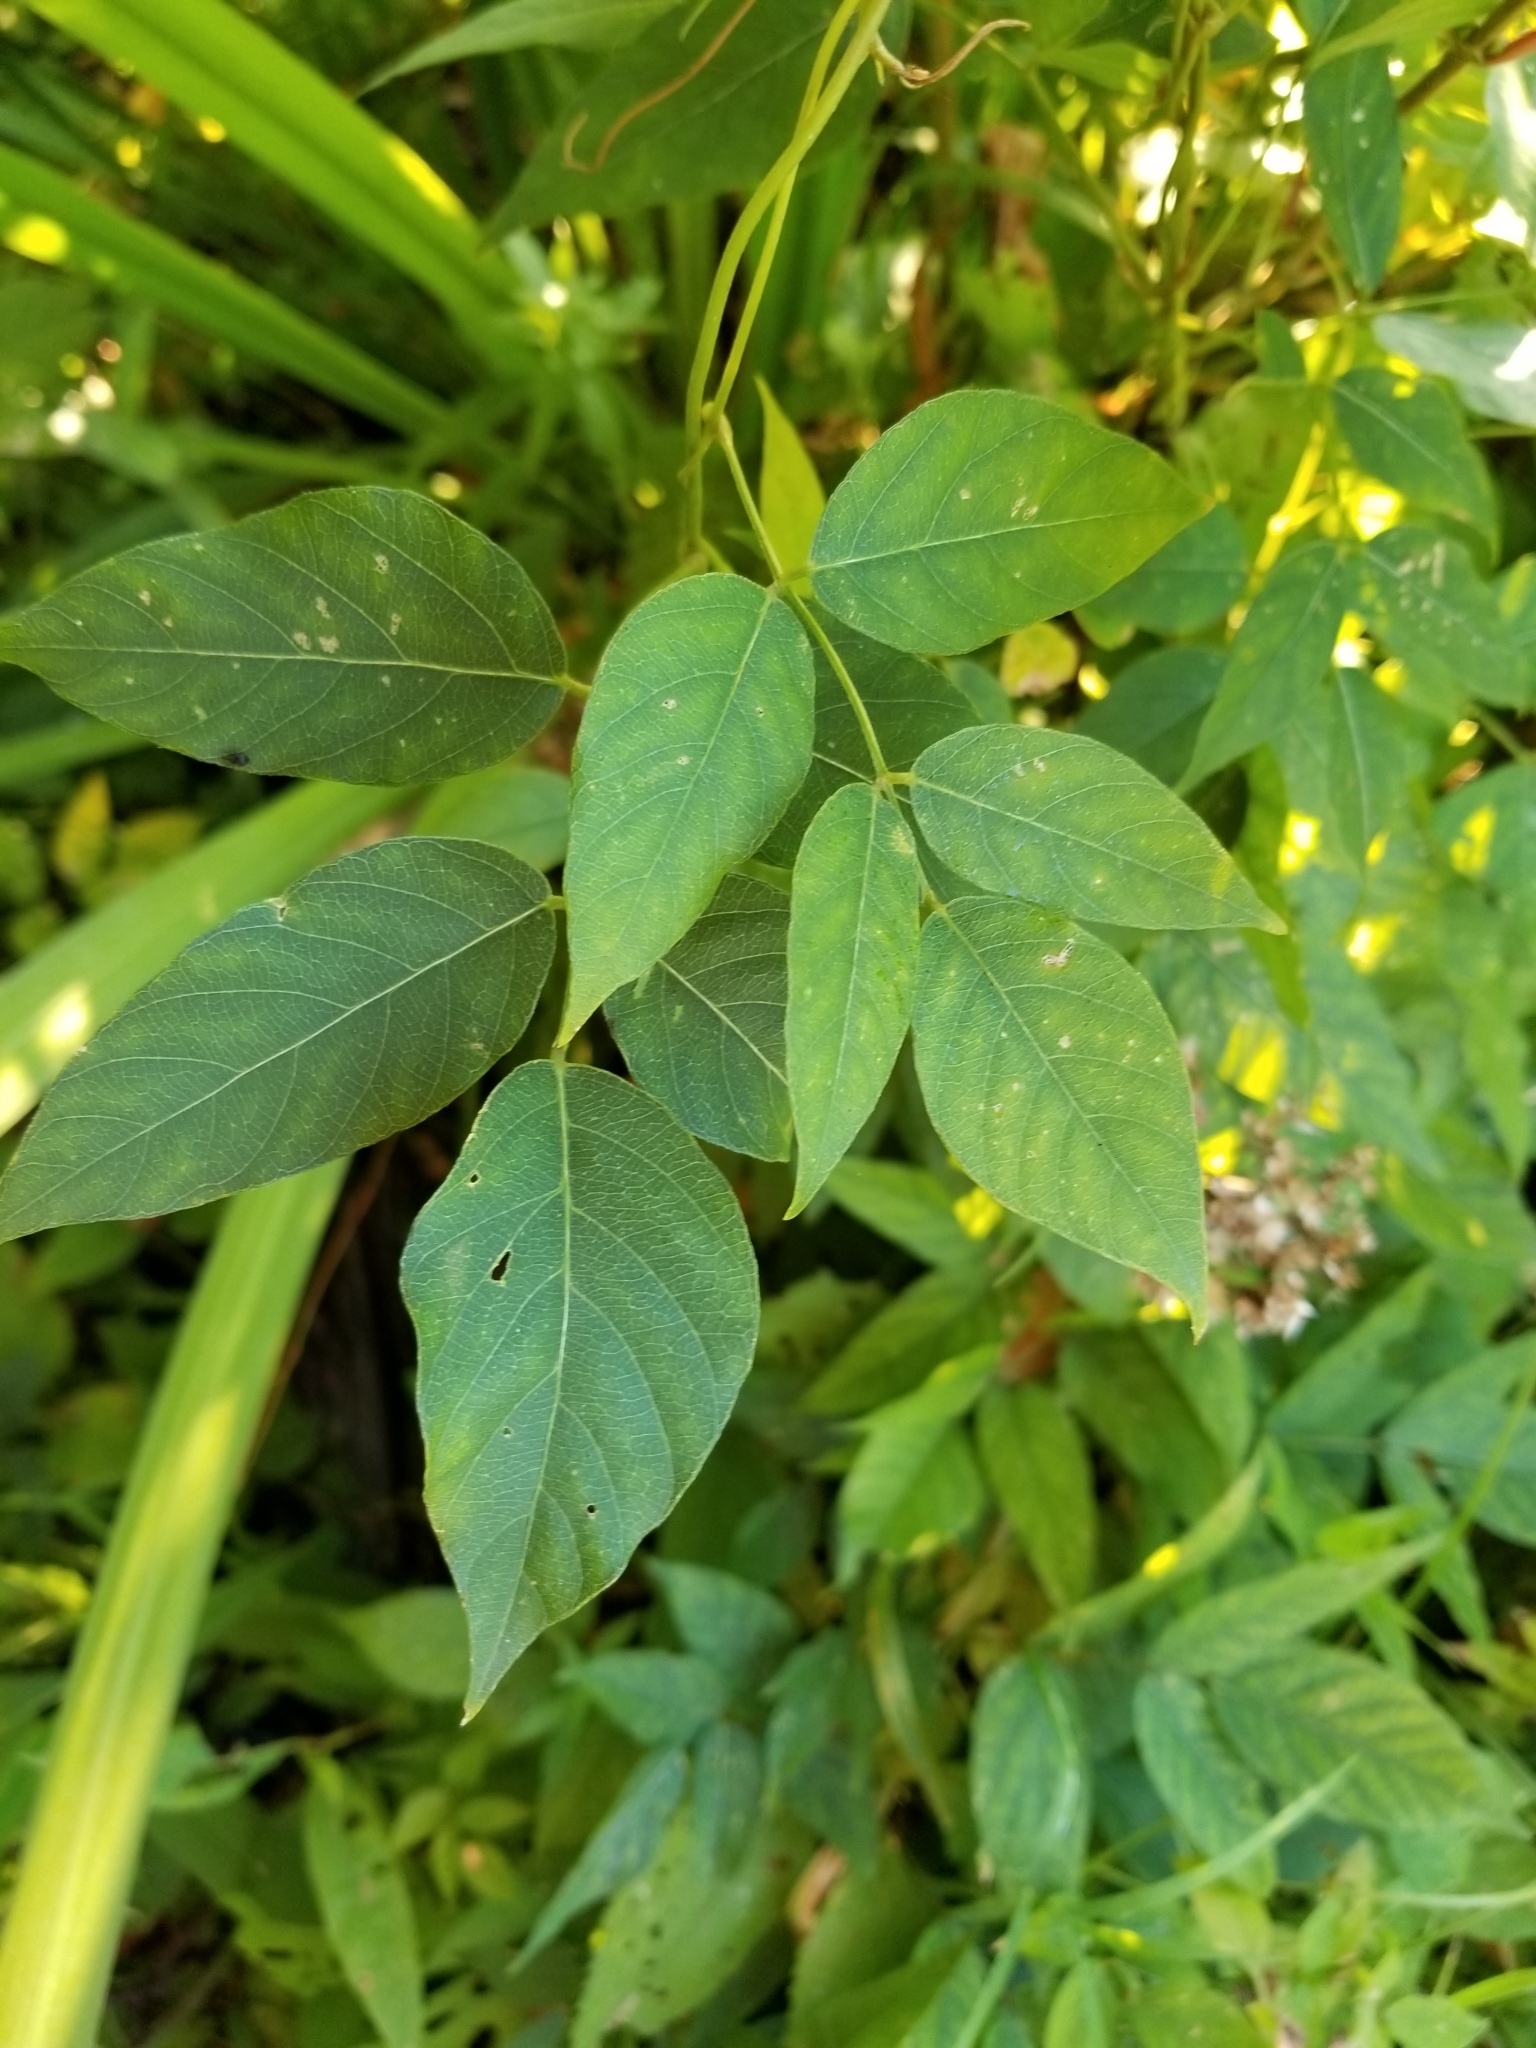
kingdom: Plantae
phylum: Tracheophyta
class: Magnoliopsida
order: Fabales
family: Fabaceae
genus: Apios
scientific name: Apios americana
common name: American potato-bean
